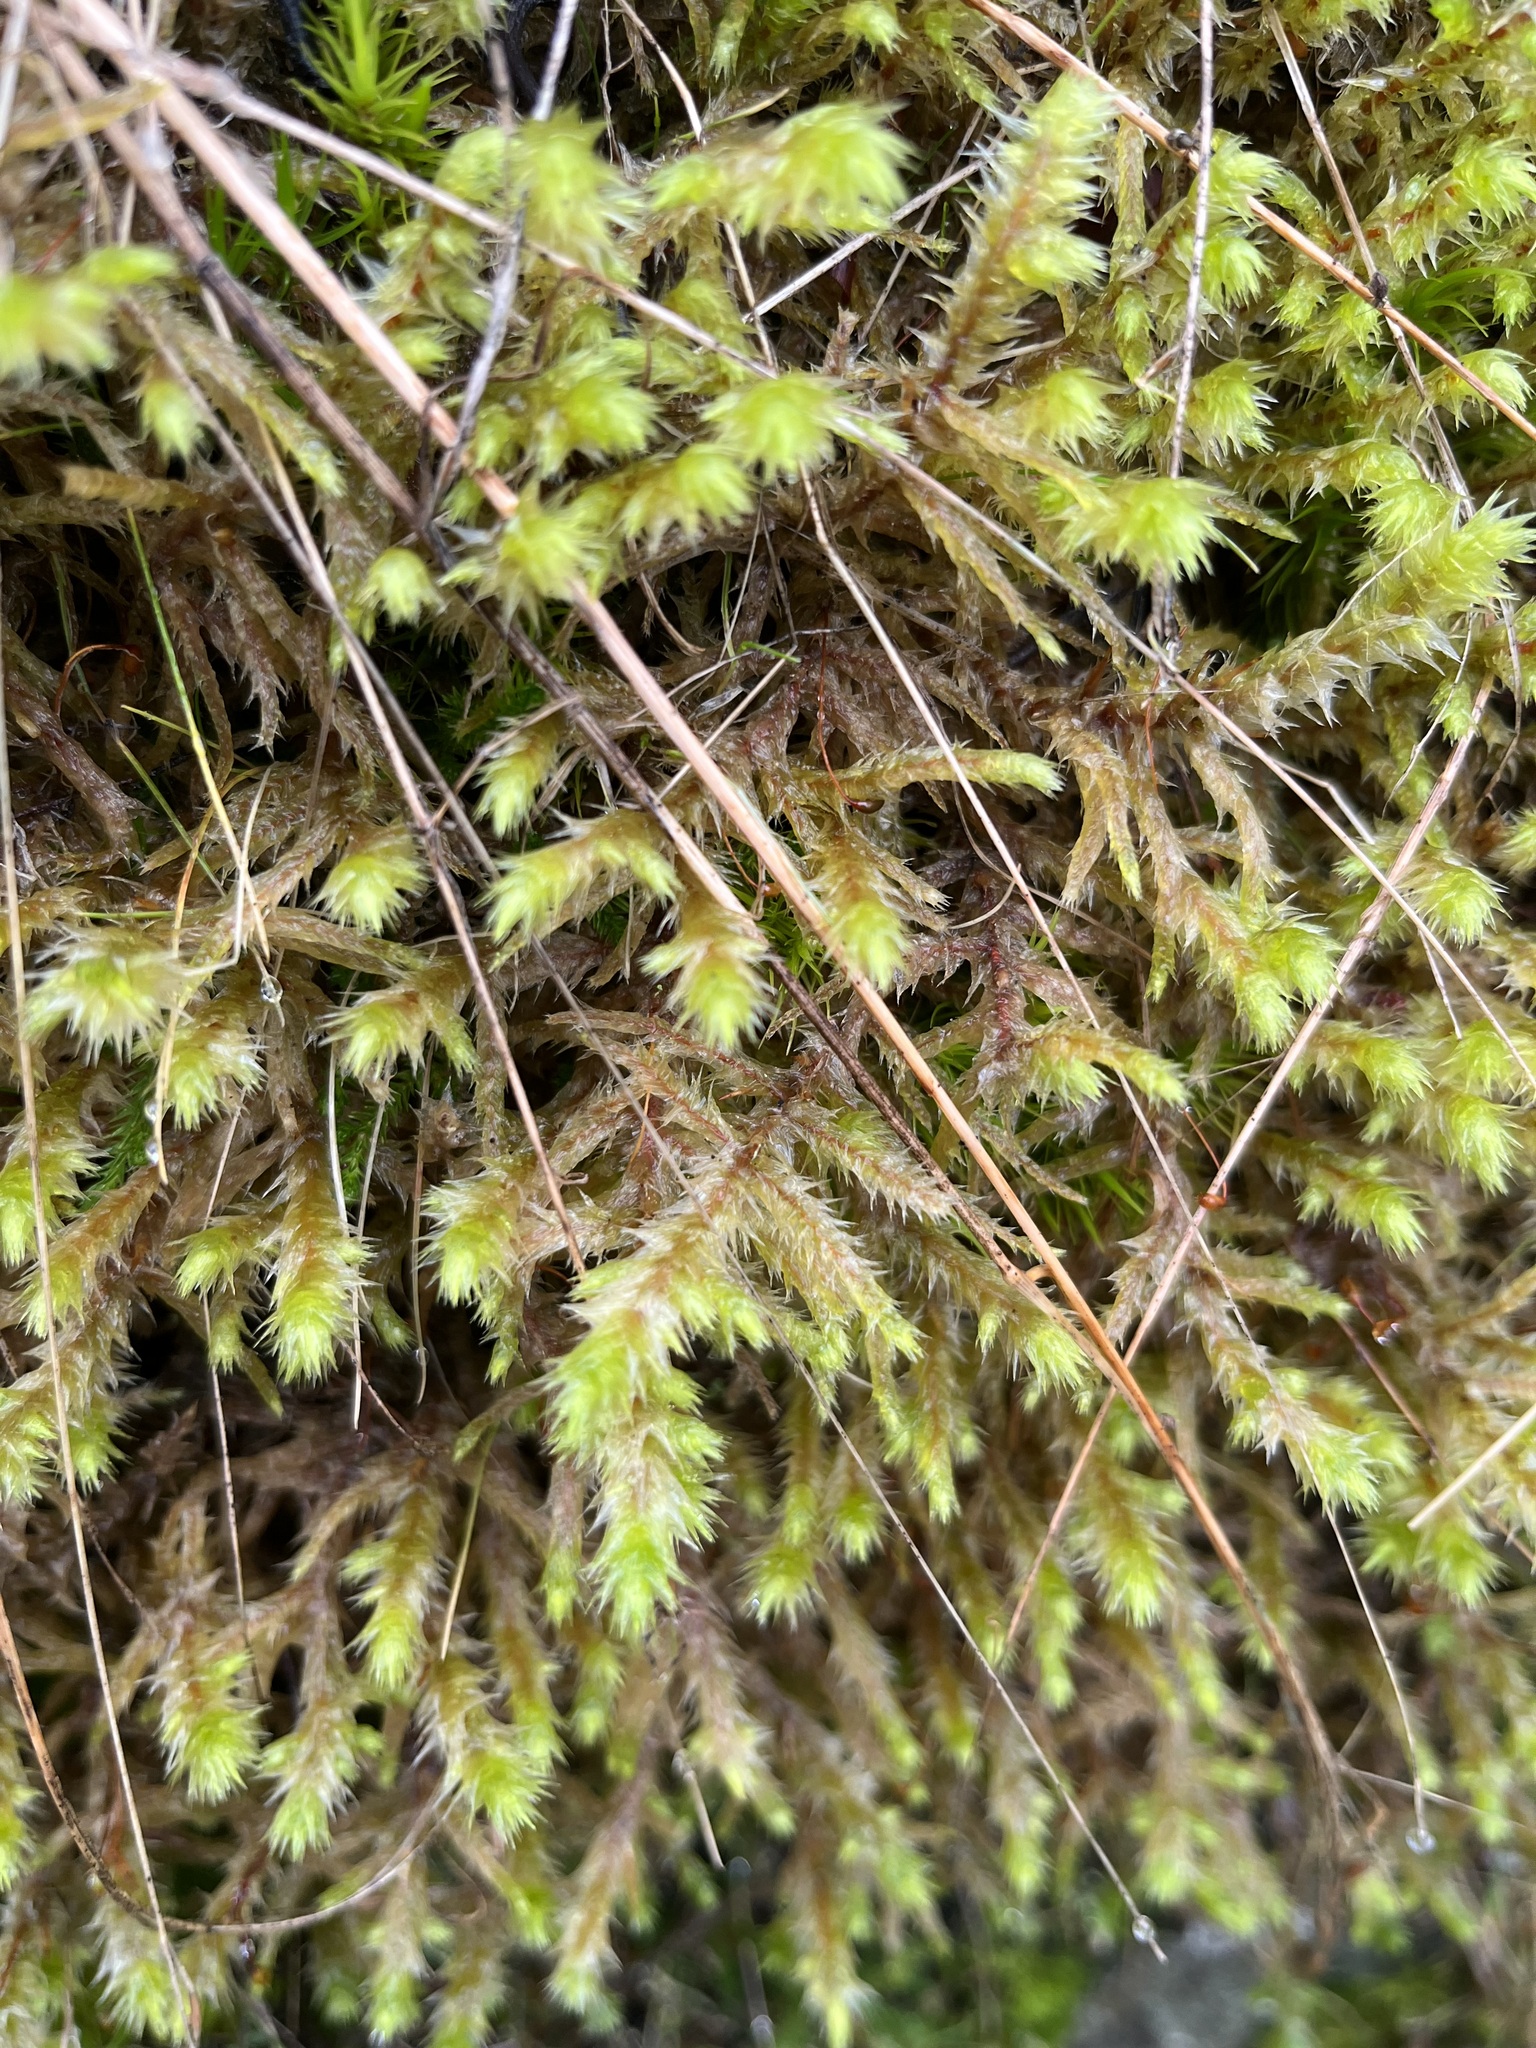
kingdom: Plantae
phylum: Bryophyta
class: Bryopsida
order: Hypnales
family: Hylocomiaceae
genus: Hylocomiadelphus
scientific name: Hylocomiadelphus triquetrus
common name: Rough goose neck moss
